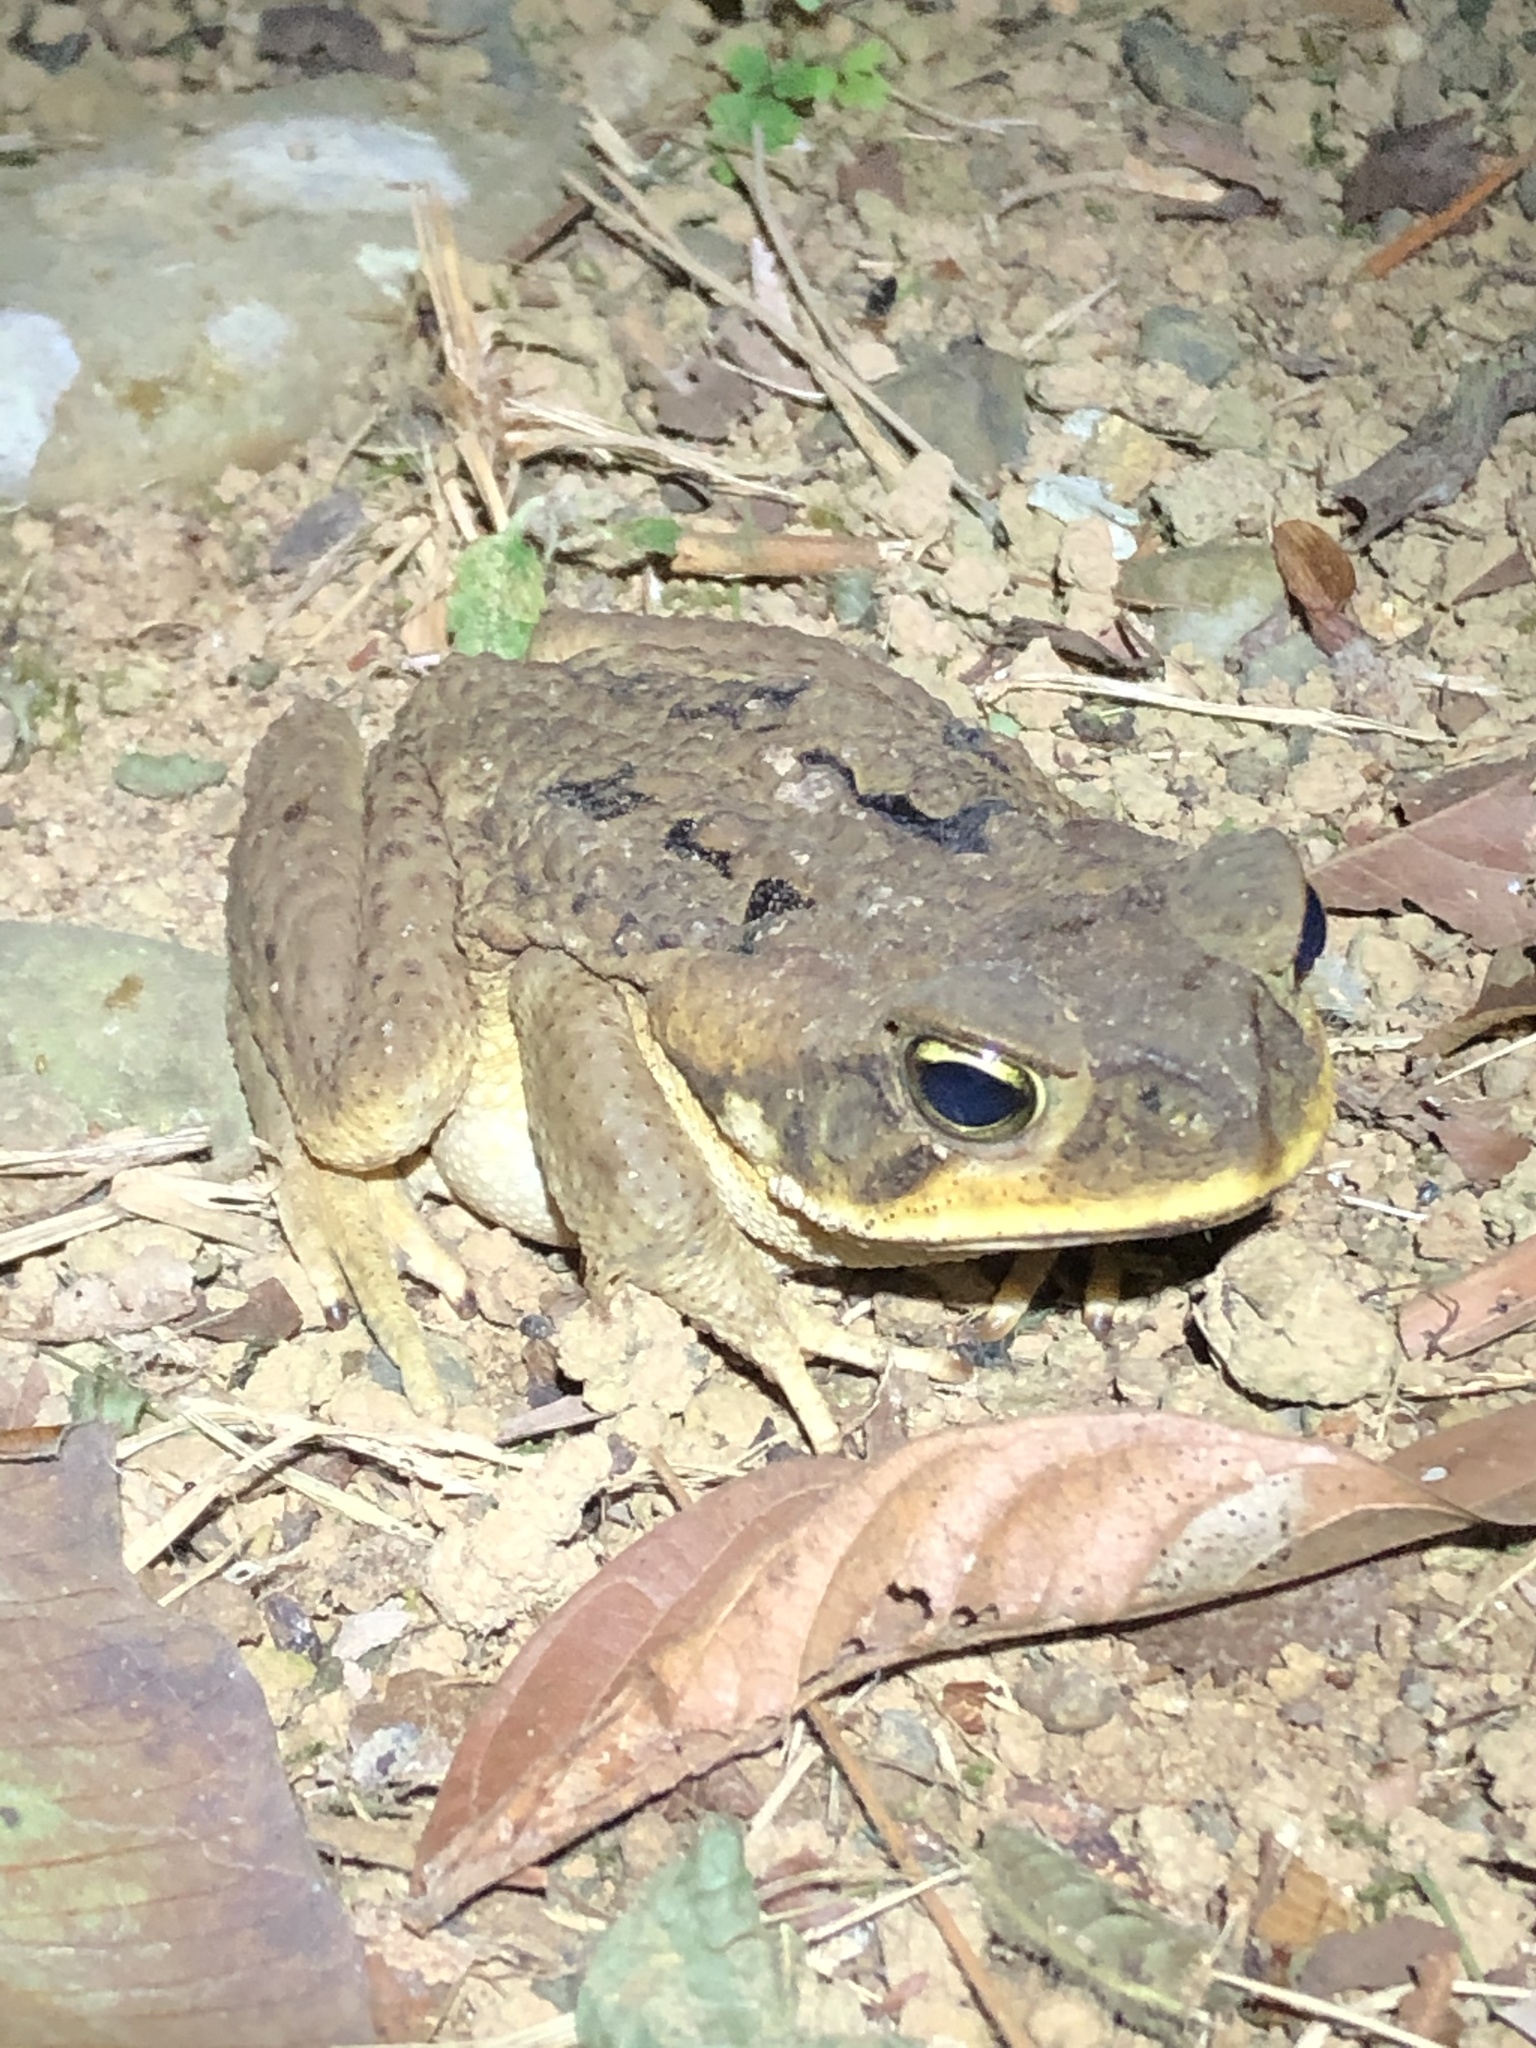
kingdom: Animalia
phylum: Chordata
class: Amphibia
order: Anura
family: Bufonidae
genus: Rhinella
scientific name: Rhinella marina
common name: Cane toad
